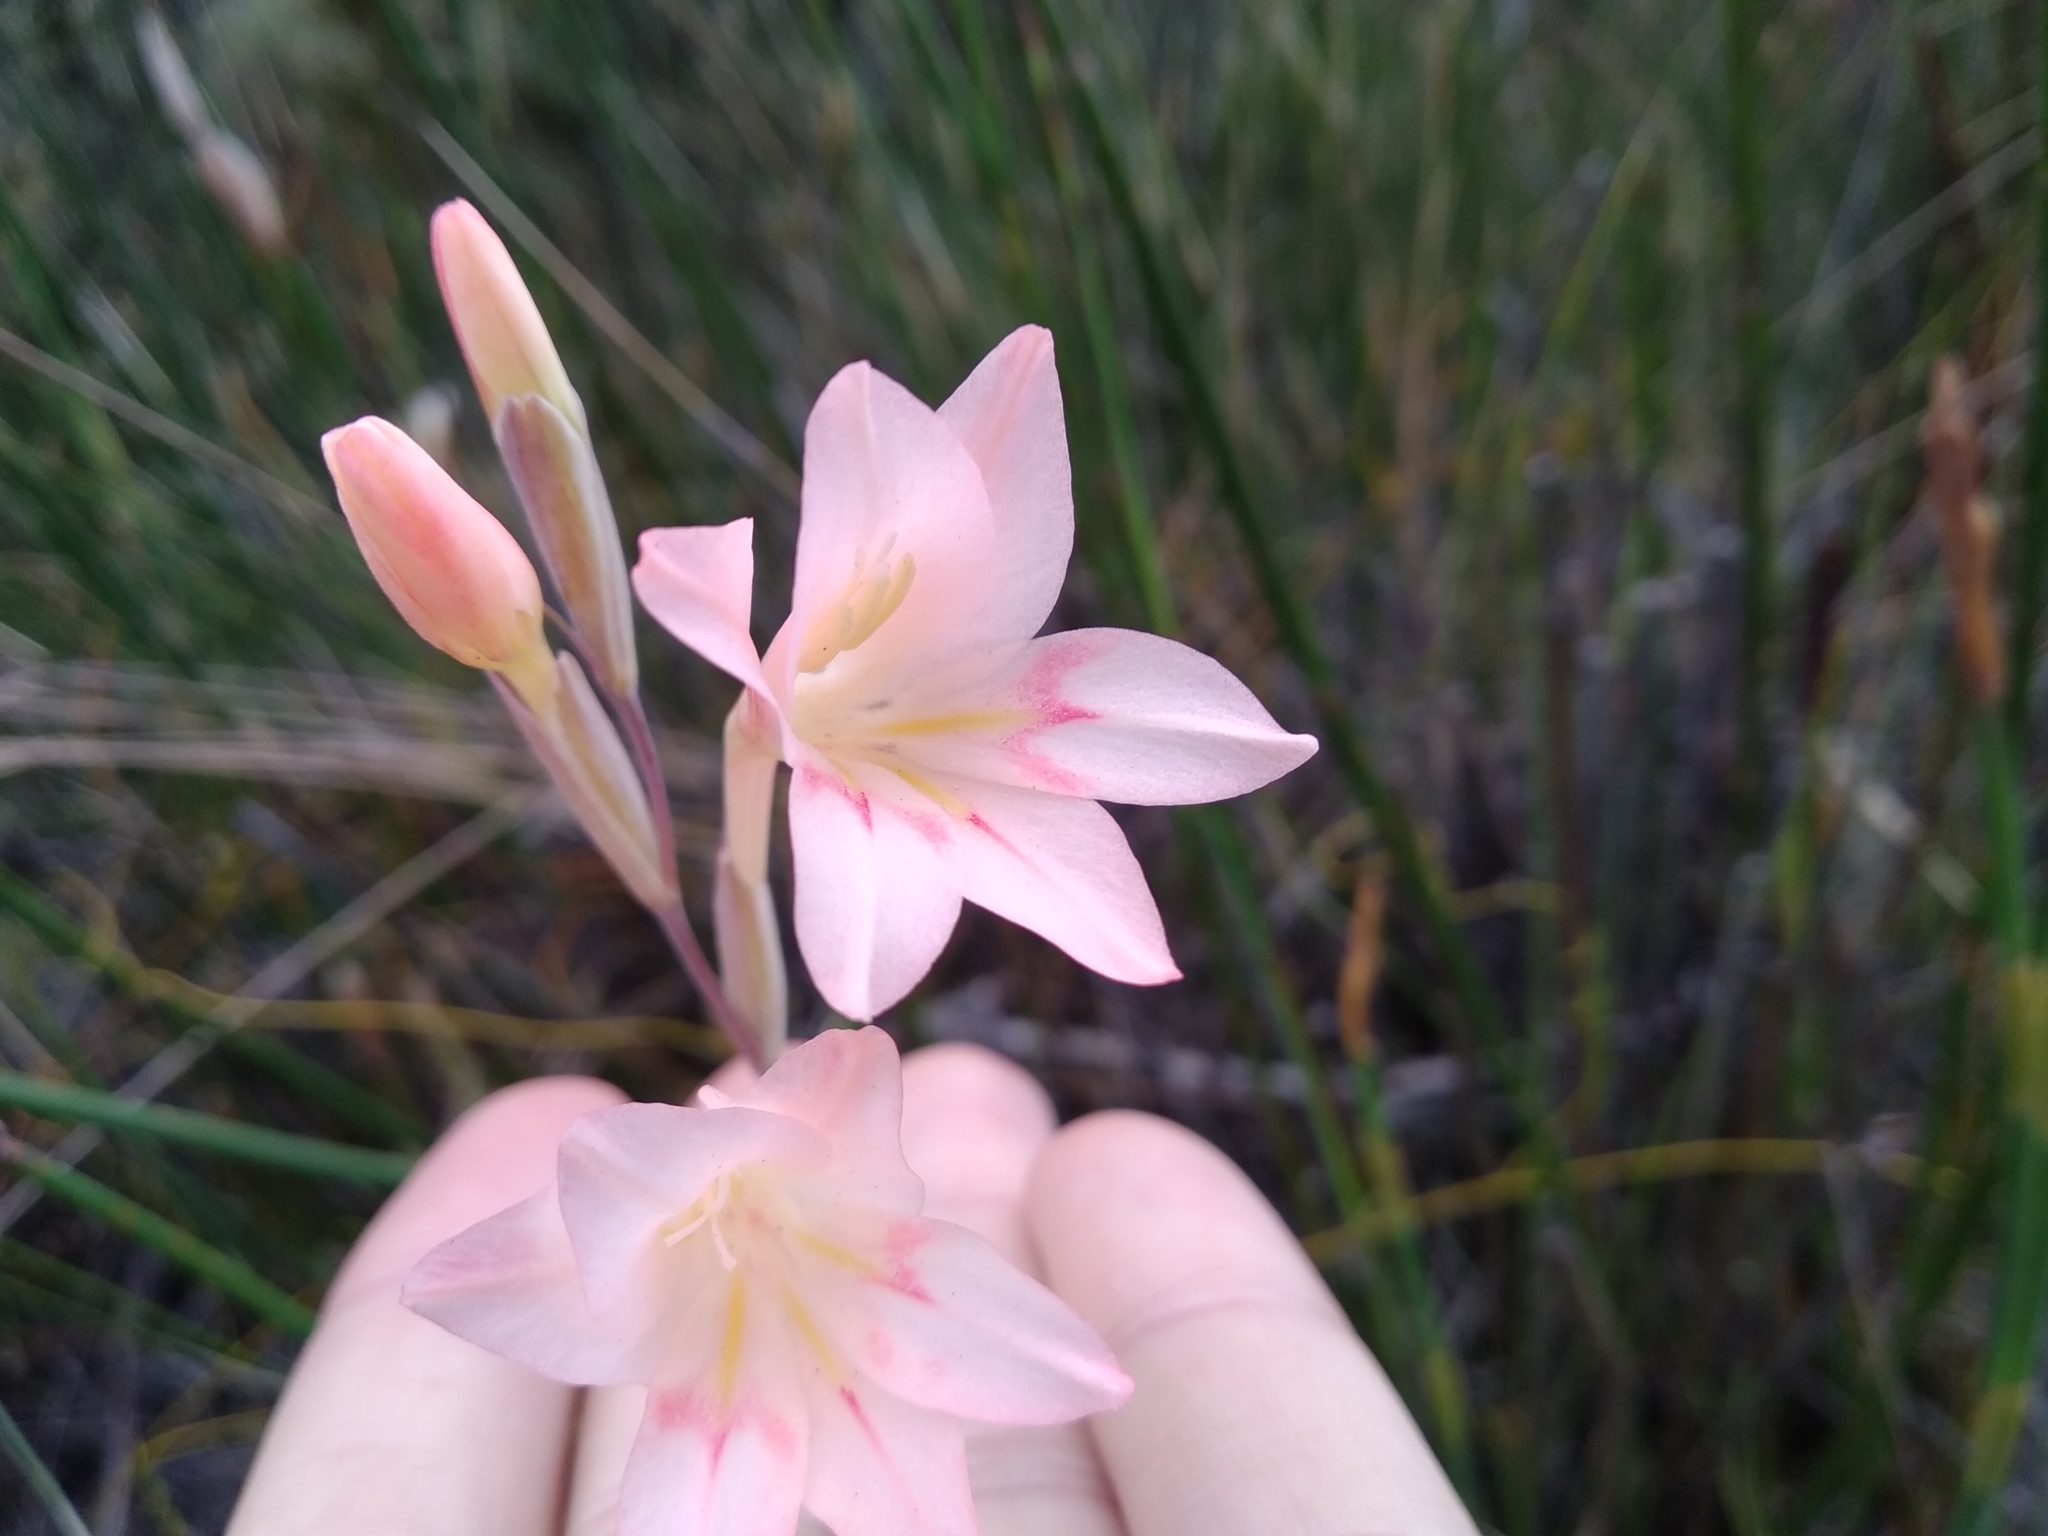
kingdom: Plantae
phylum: Tracheophyta
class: Liliopsida
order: Asparagales
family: Iridaceae
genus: Gladiolus
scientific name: Gladiolus monticola
